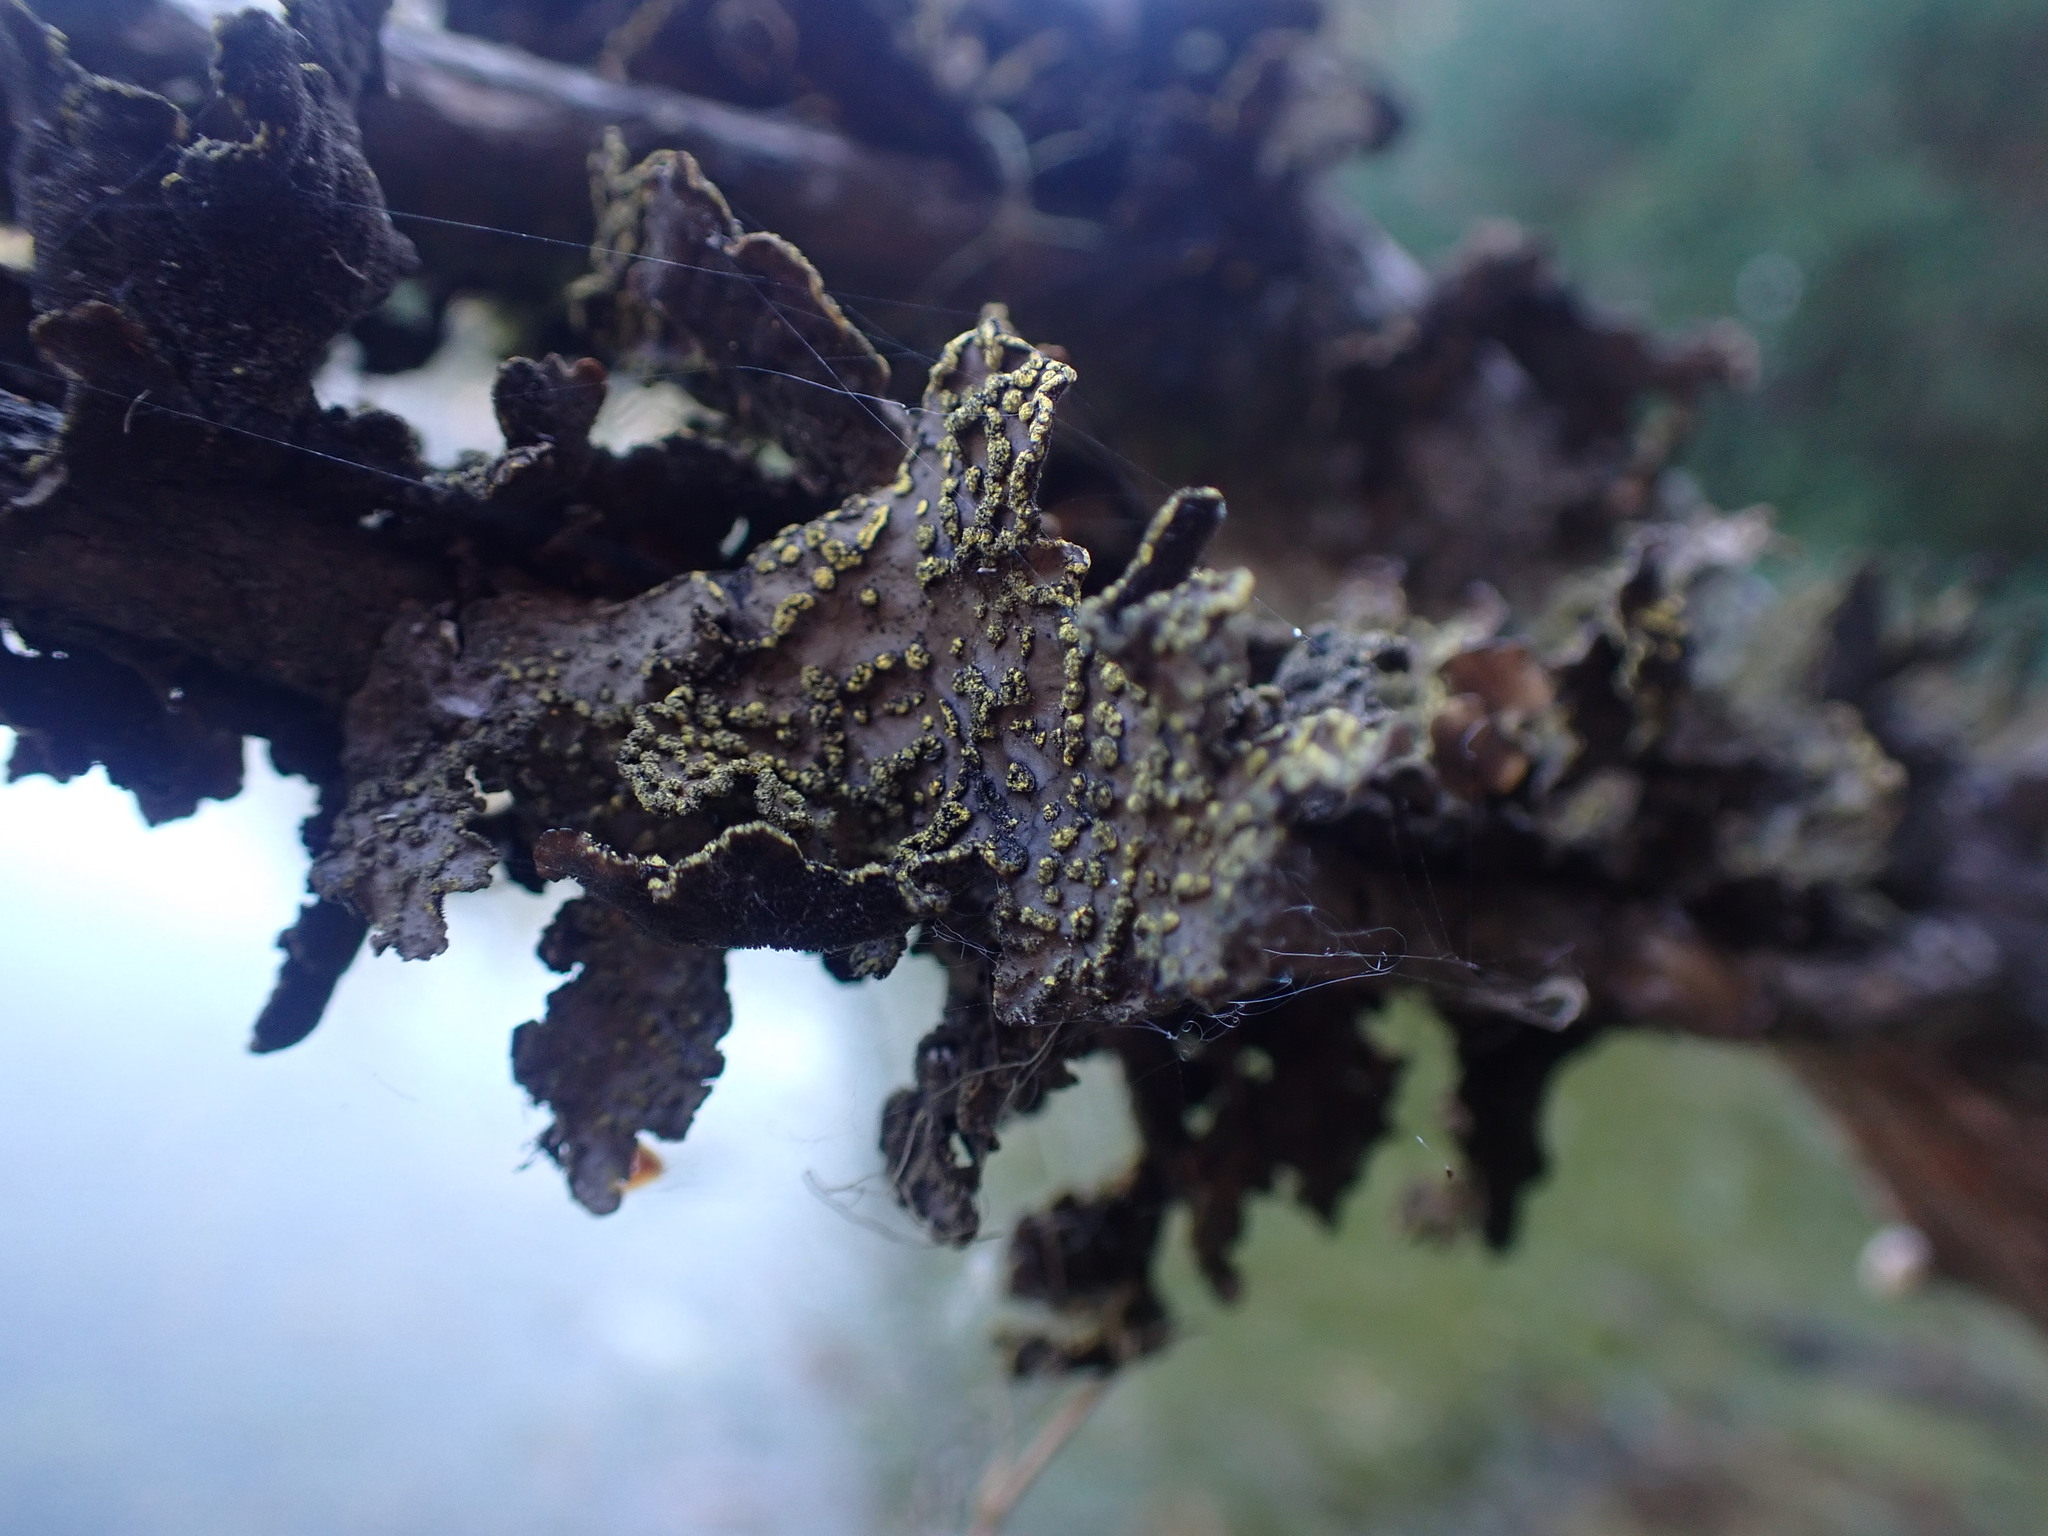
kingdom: Fungi
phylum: Ascomycota
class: Lecanoromycetes
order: Peltigerales
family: Lobariaceae
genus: Pseudocyphellaria
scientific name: Pseudocyphellaria citrina
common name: Golden specklebelly
